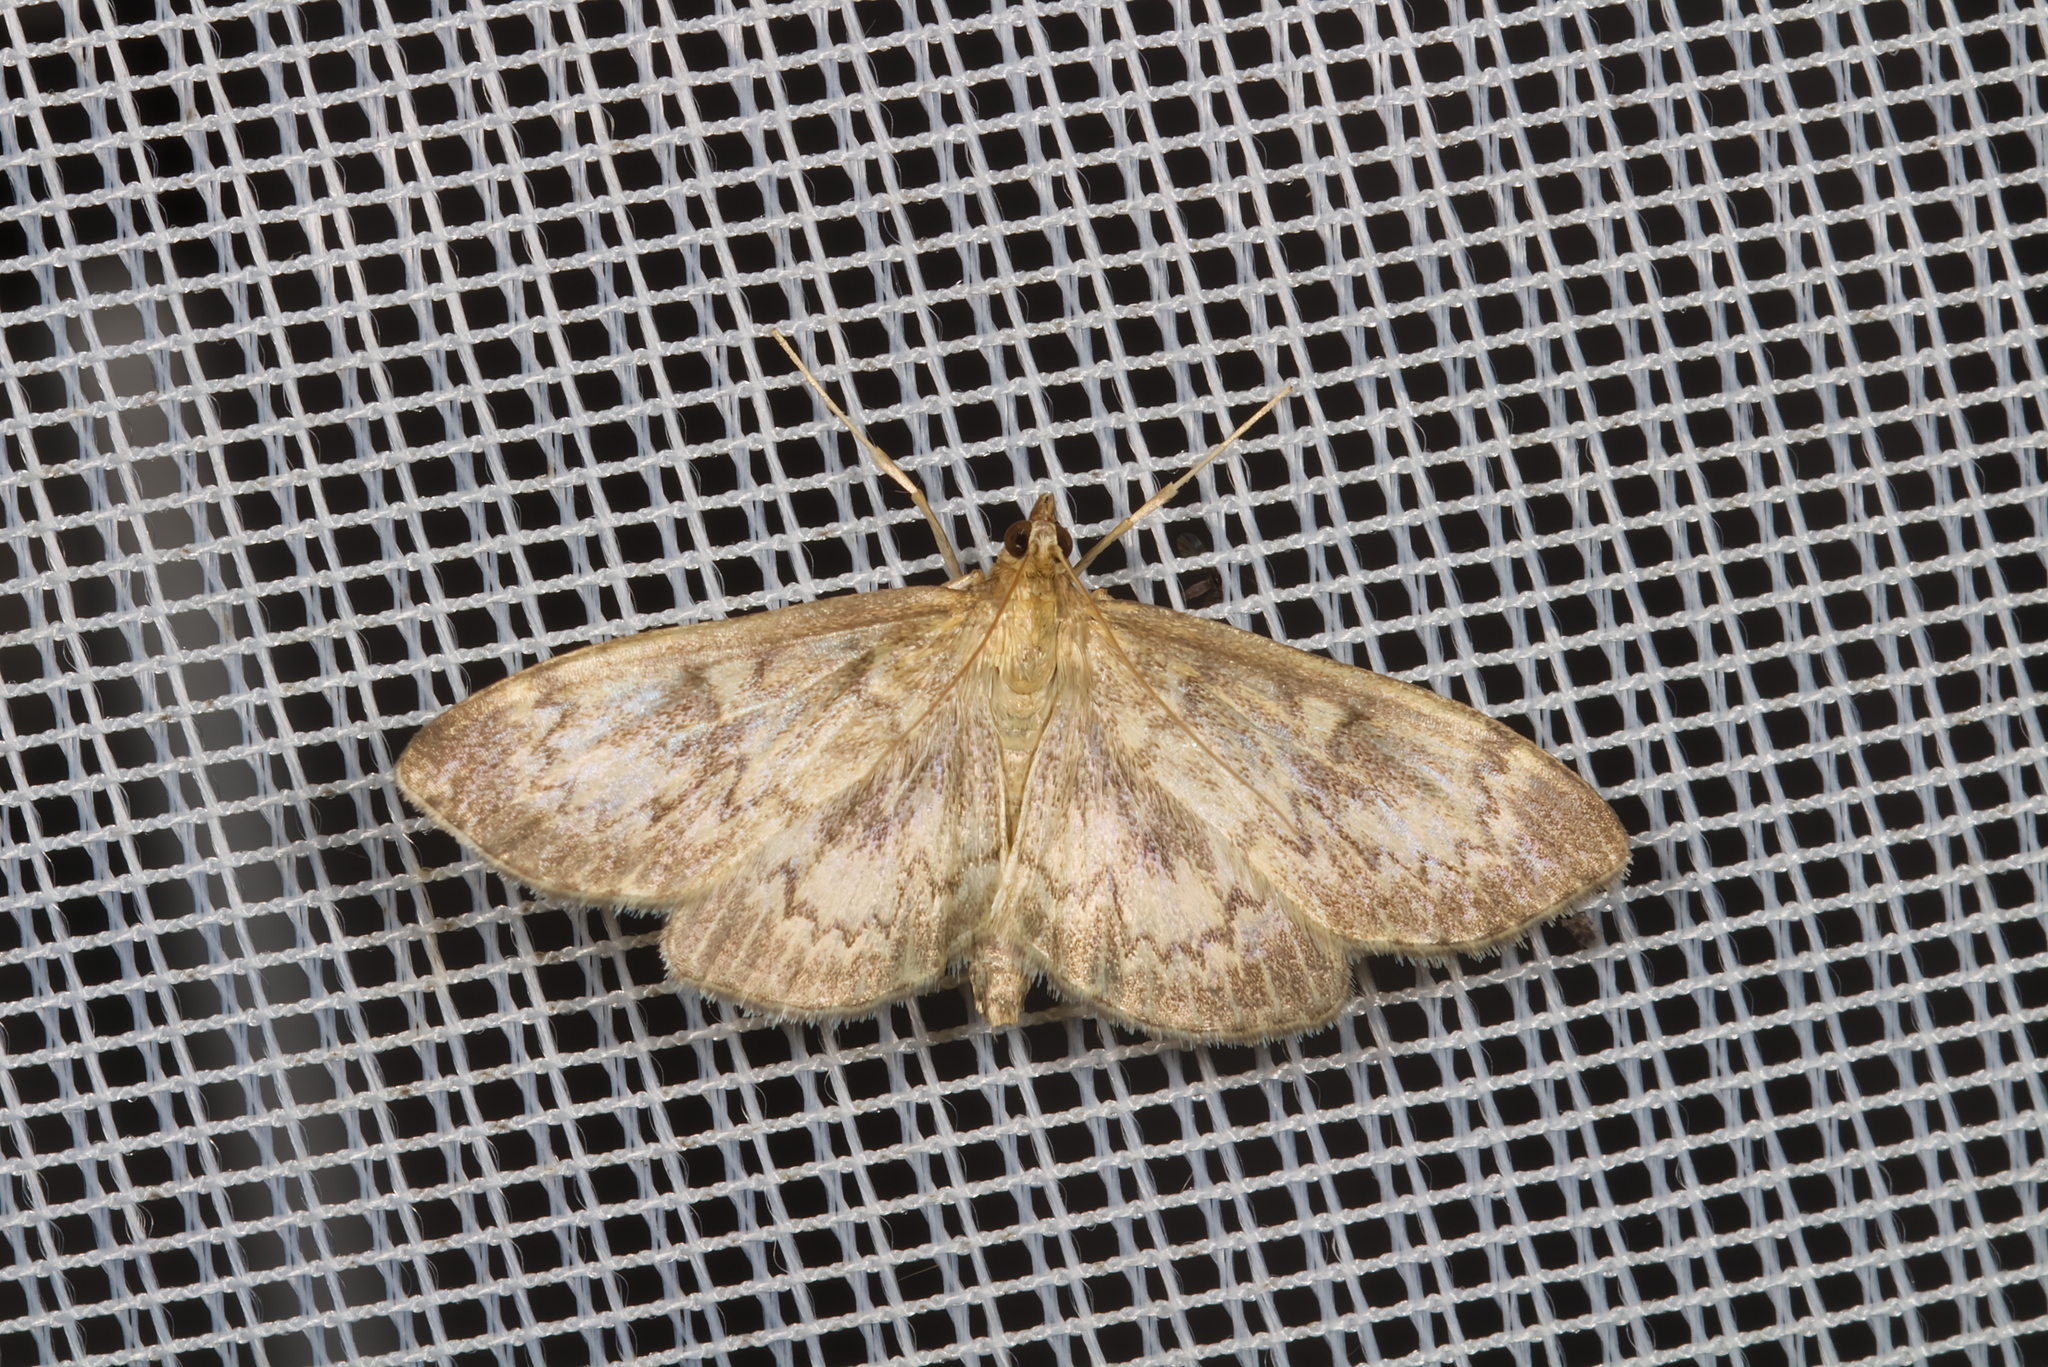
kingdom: Animalia
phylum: Arthropoda
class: Insecta
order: Lepidoptera
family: Crambidae
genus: Anania
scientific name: Anania lancealis
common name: Long-winged pearl
